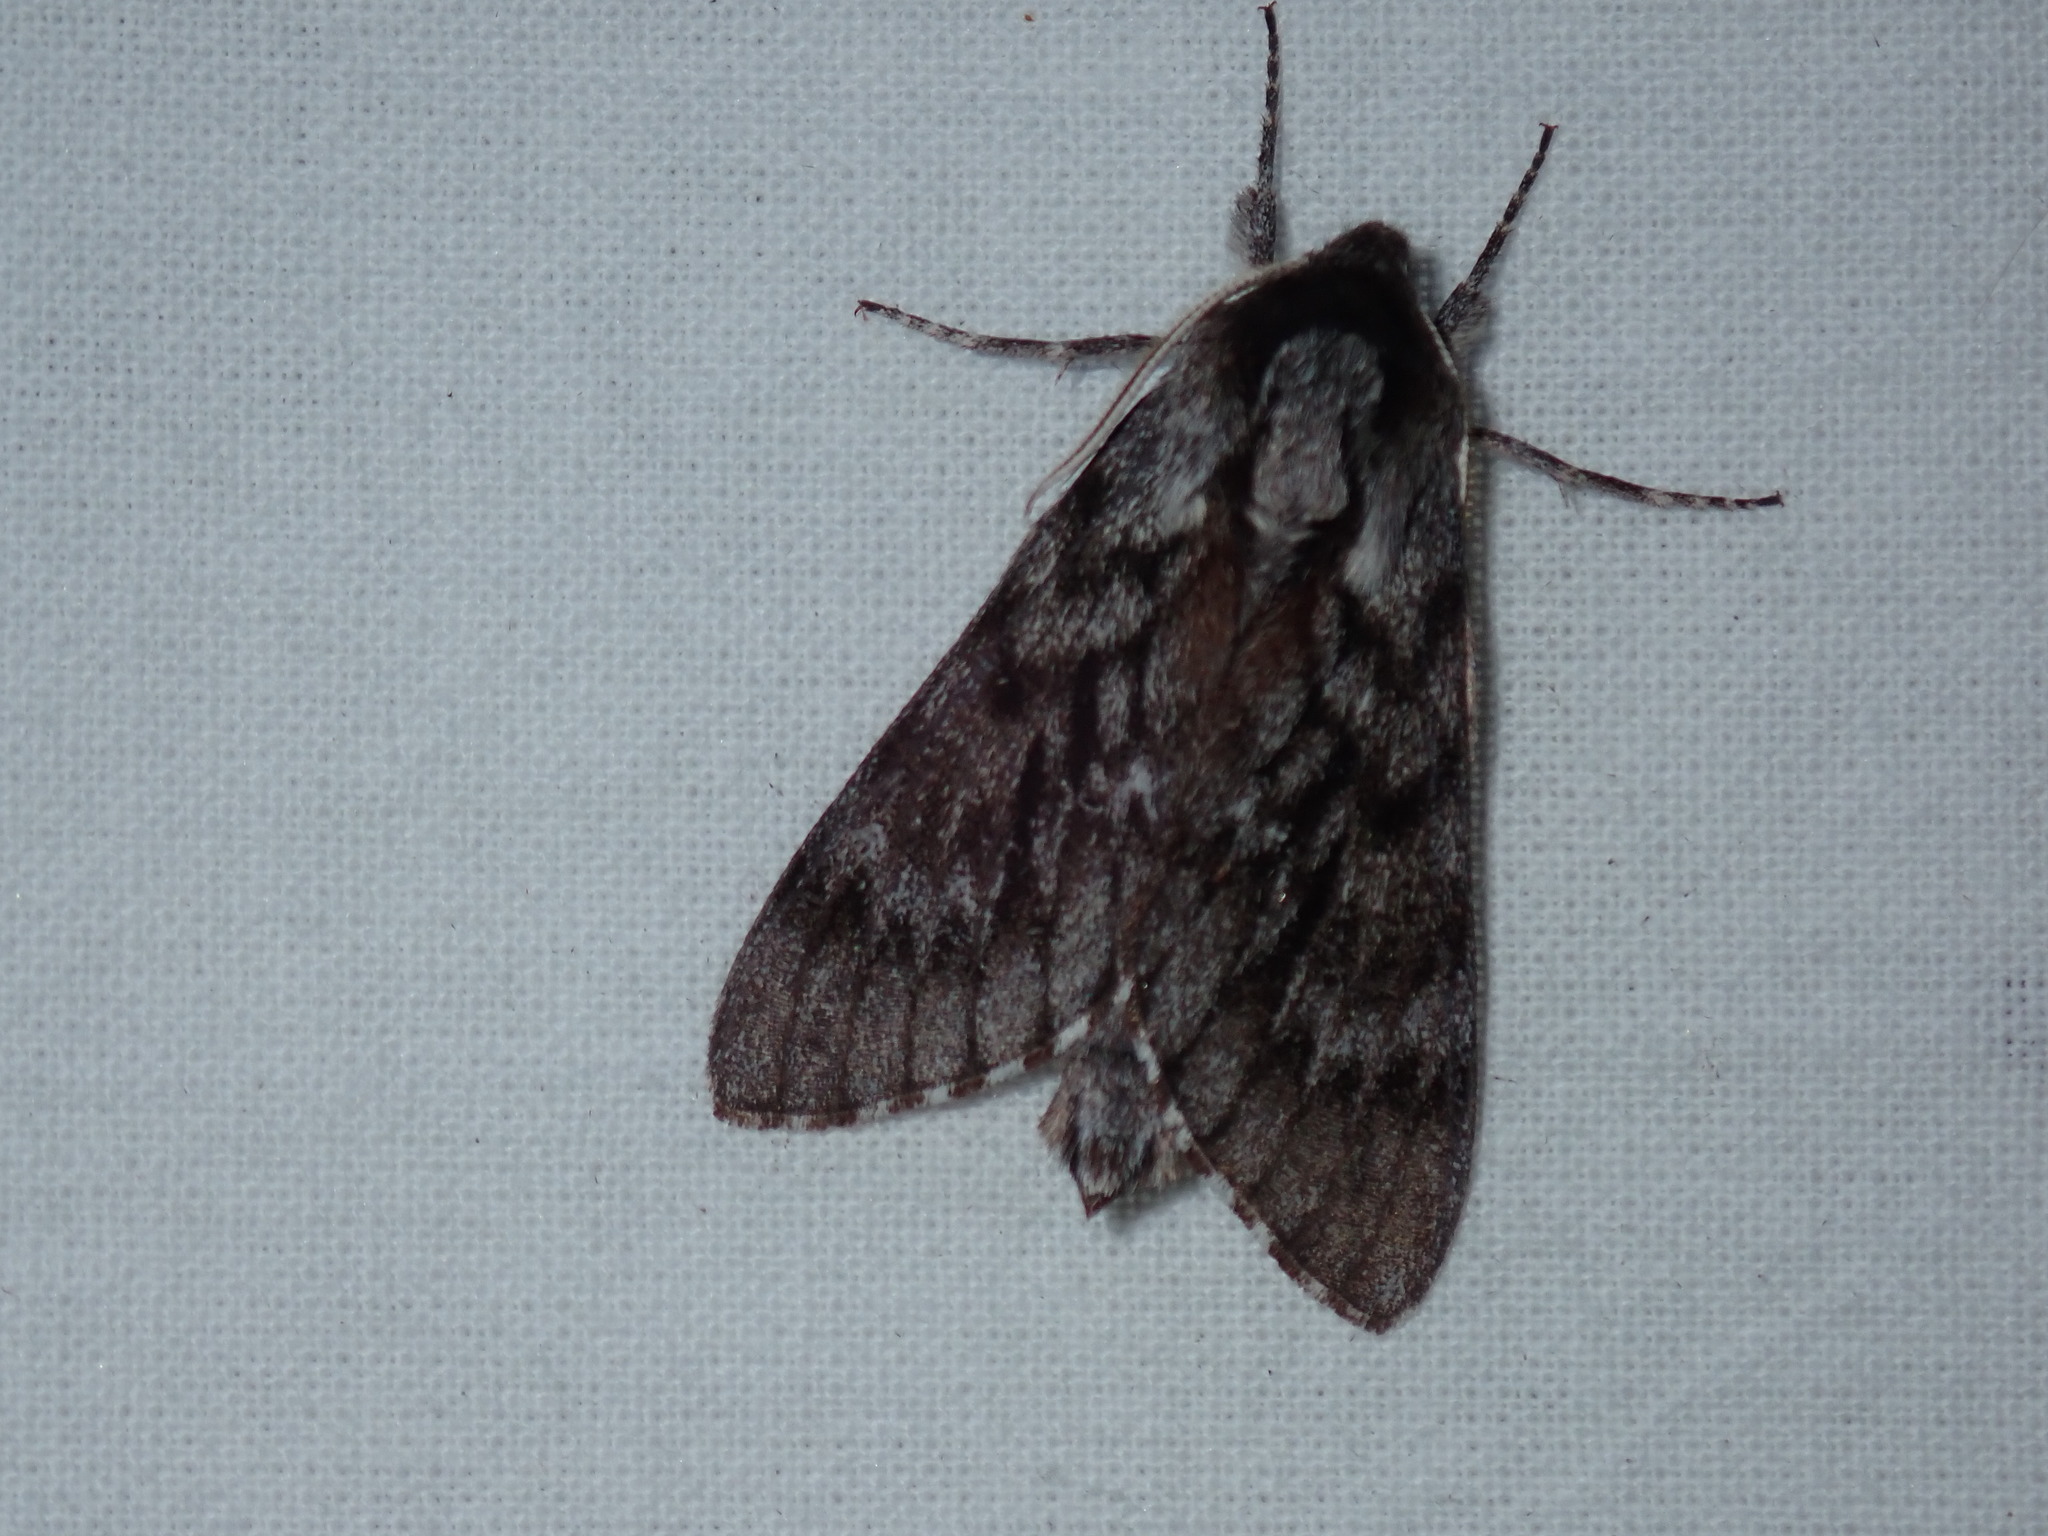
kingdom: Animalia
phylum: Arthropoda
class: Insecta
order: Lepidoptera
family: Sphingidae
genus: Lapara
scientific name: Lapara bombycoides
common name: Northern pine sphinx
